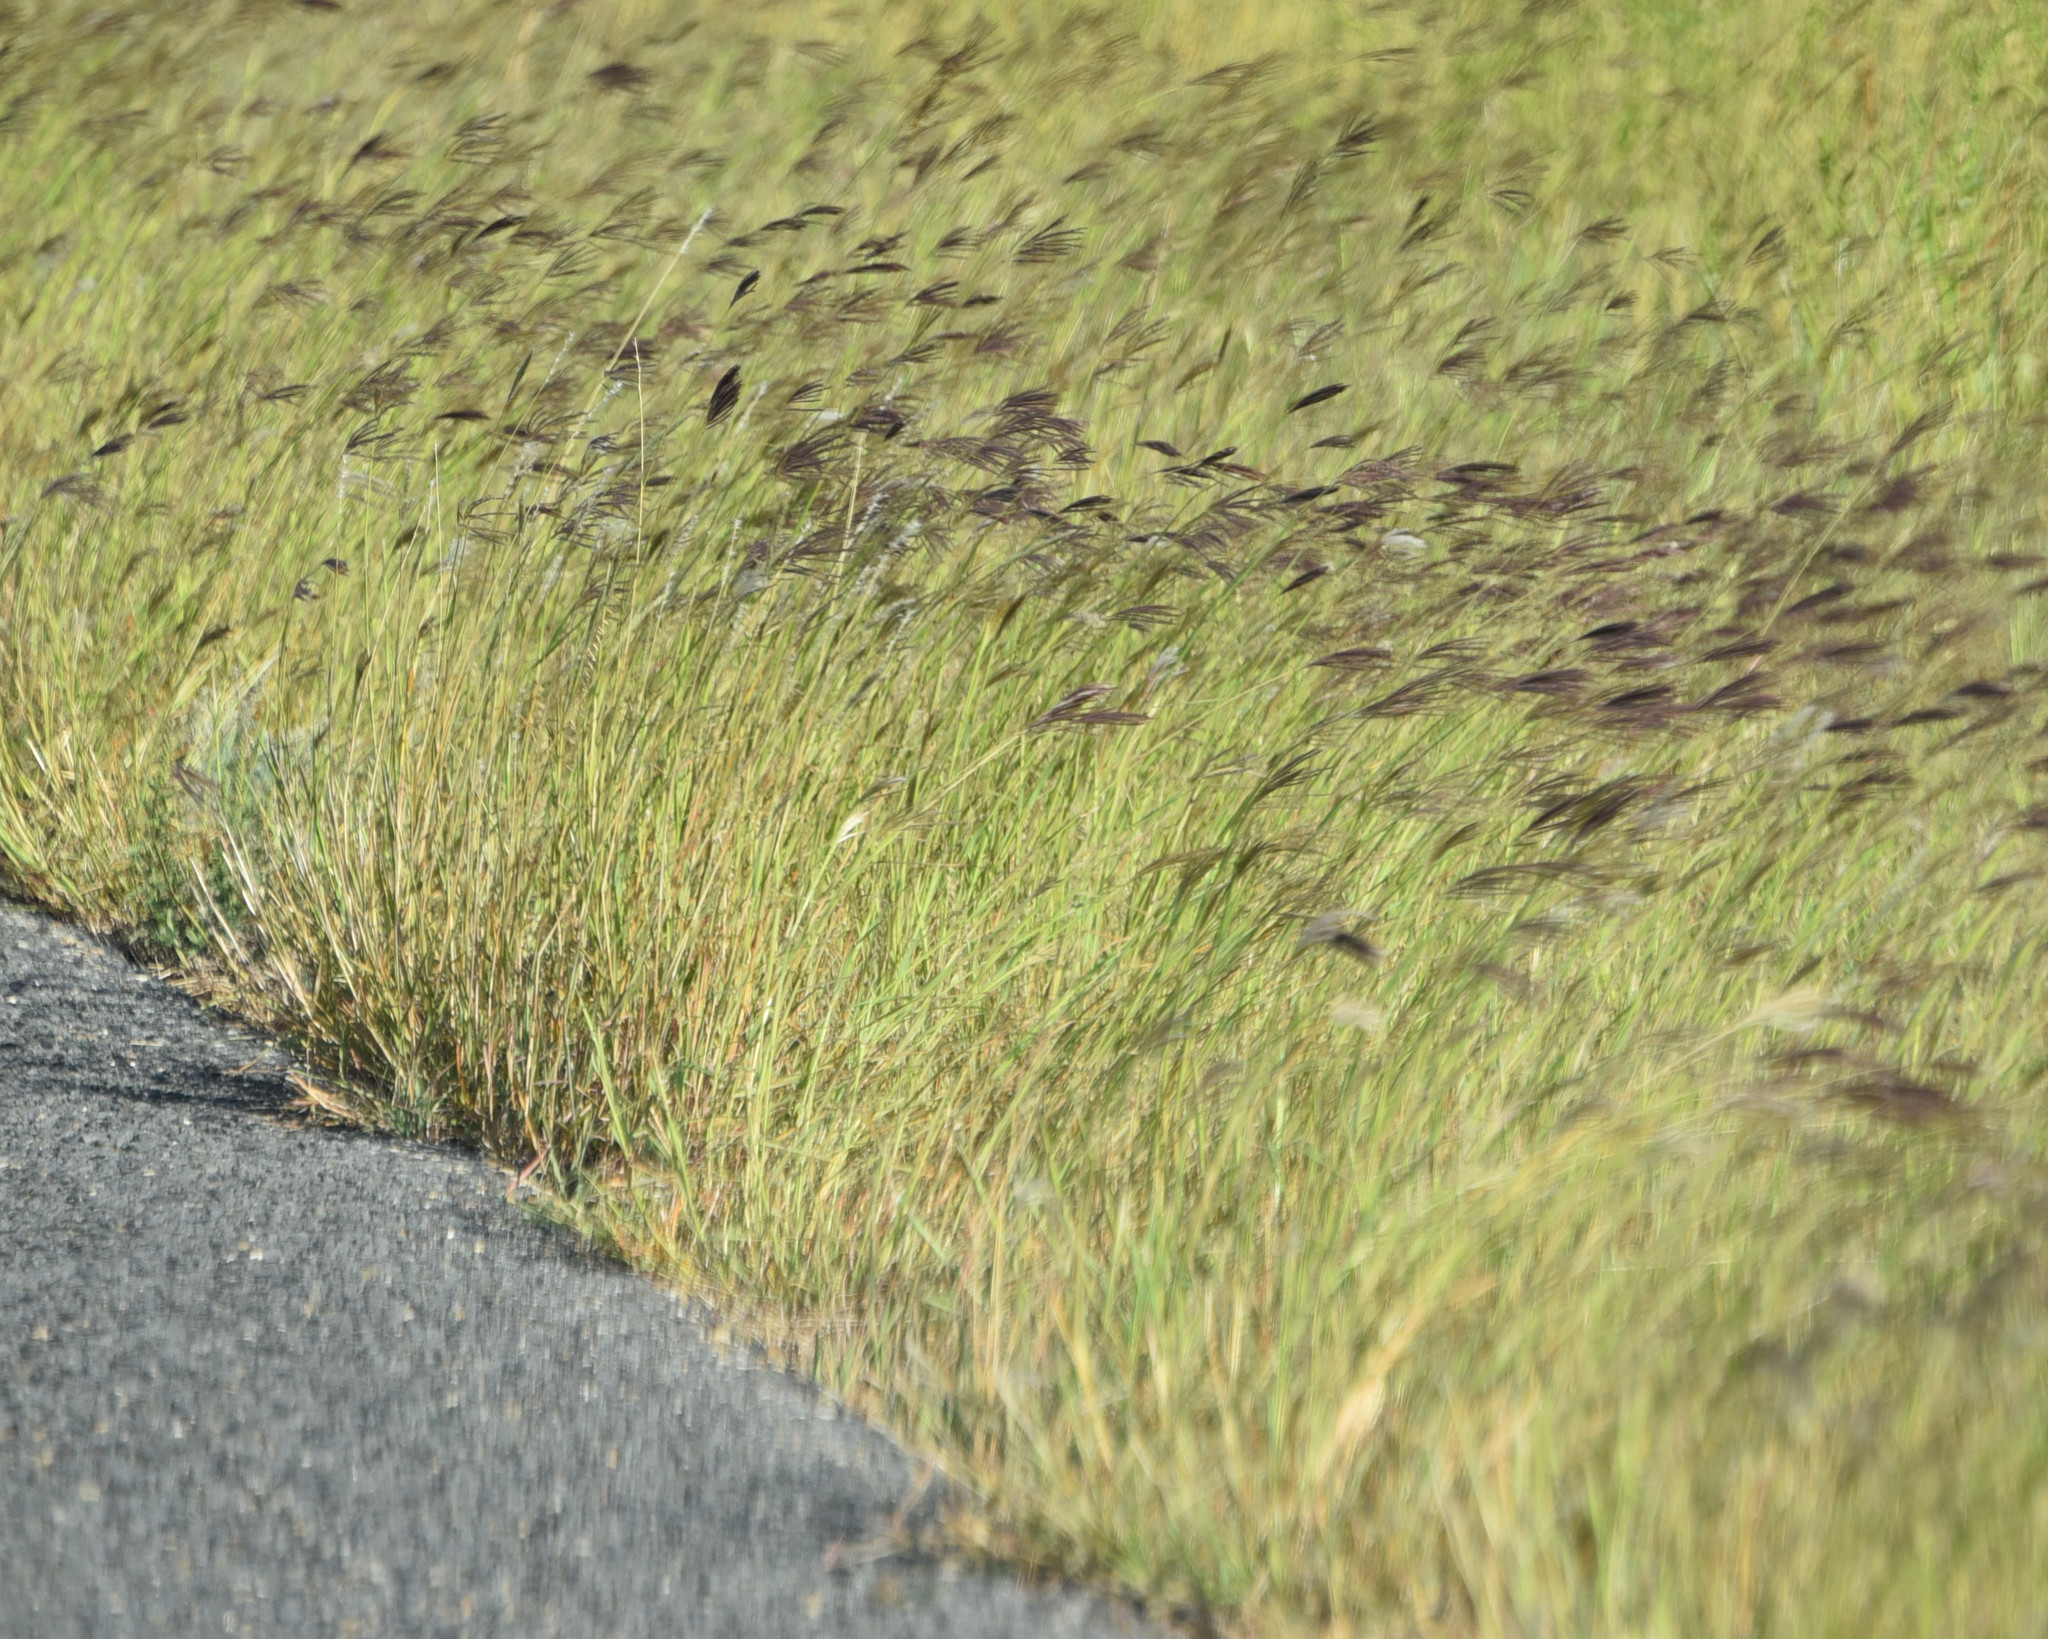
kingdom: Plantae
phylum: Tracheophyta
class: Liliopsida
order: Poales
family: Poaceae
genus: Bothriochloa
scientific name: Bothriochloa ischaemum
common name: Yellow bluestem
